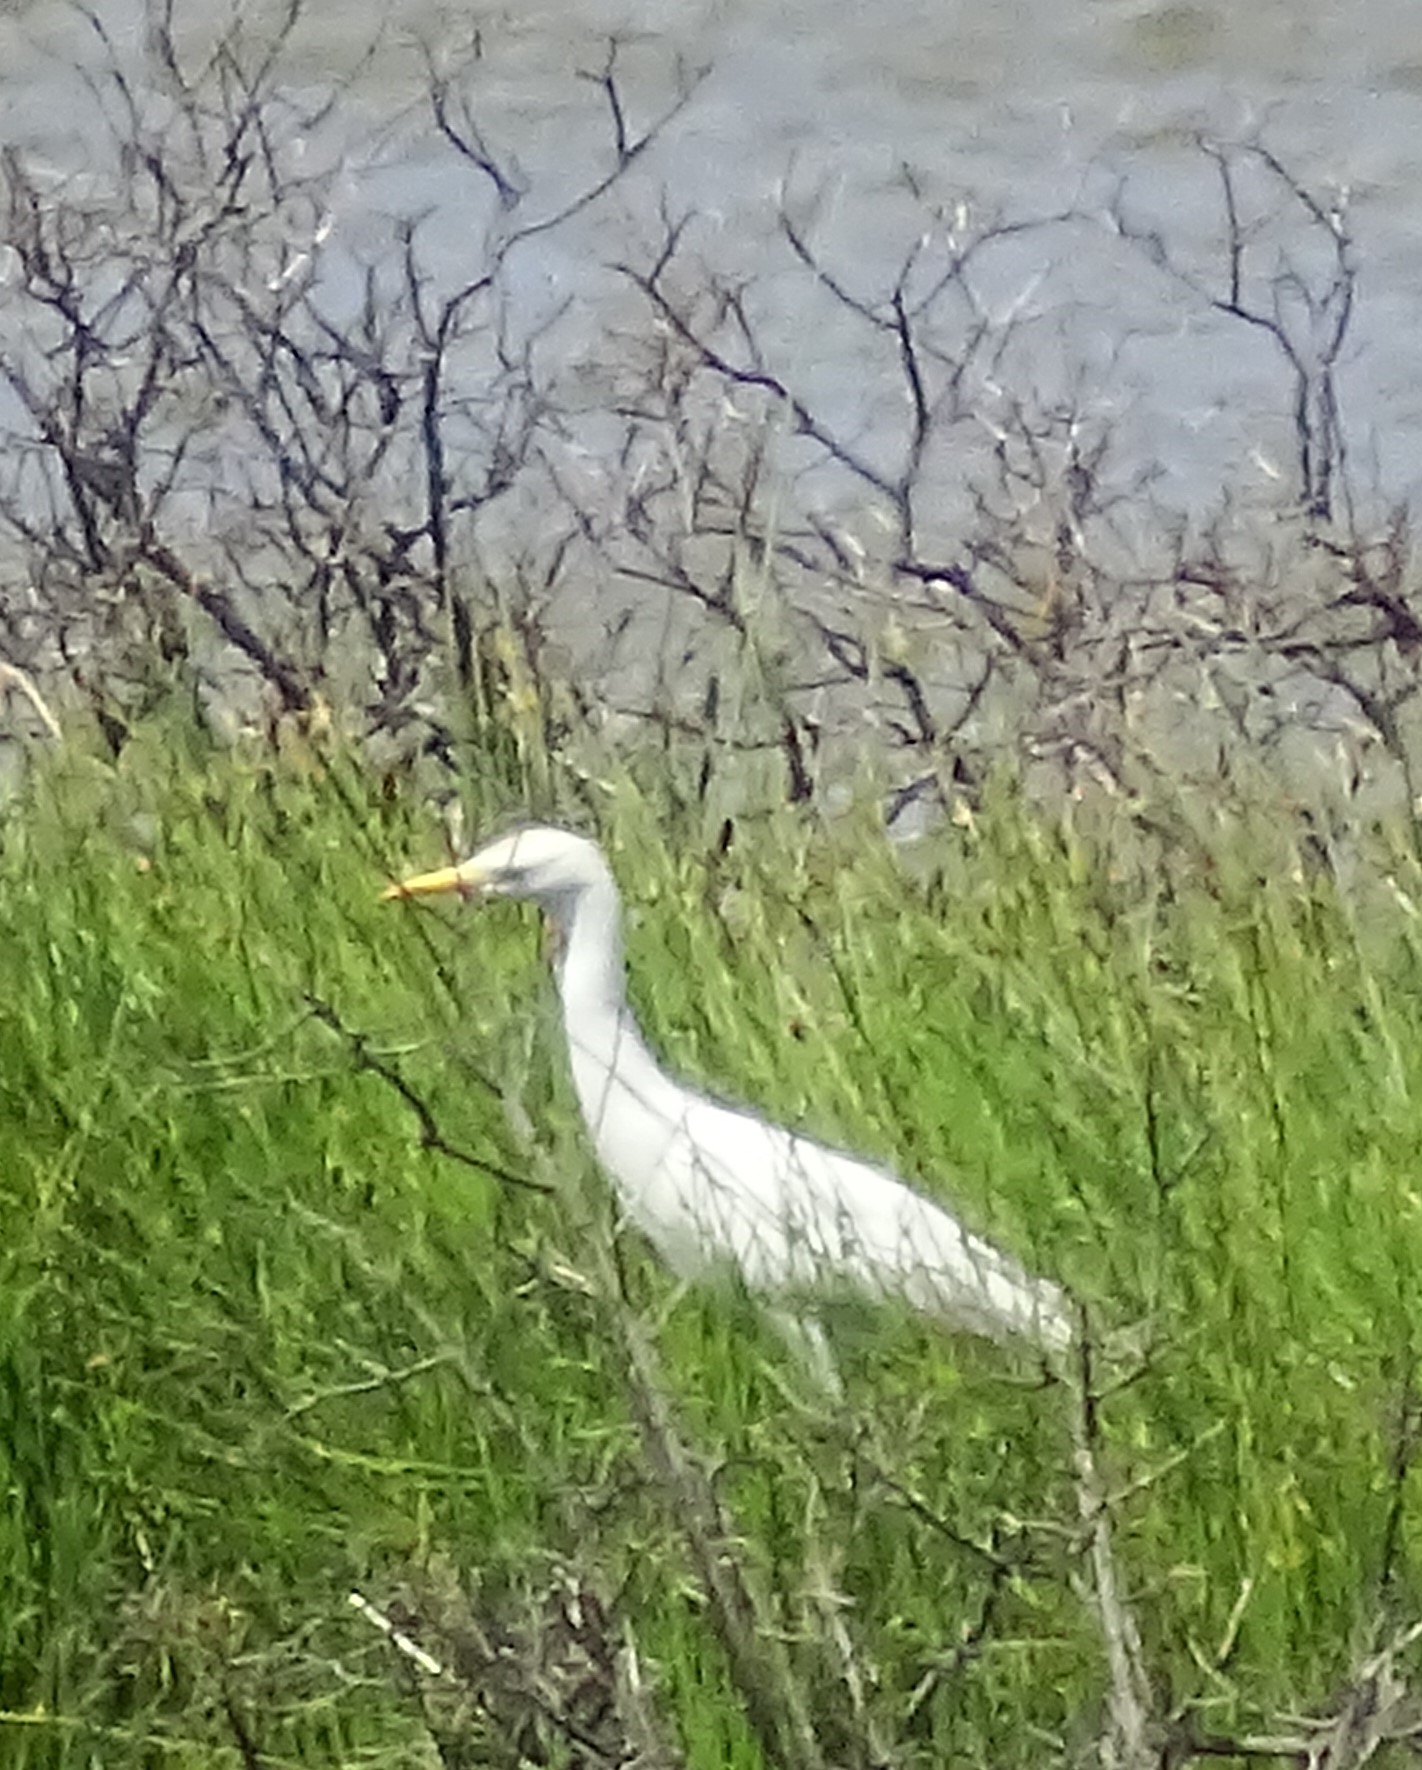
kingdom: Animalia
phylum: Chordata
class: Aves
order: Pelecaniformes
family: Ardeidae
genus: Bubulcus
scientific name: Bubulcus ibis
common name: Cattle egret
